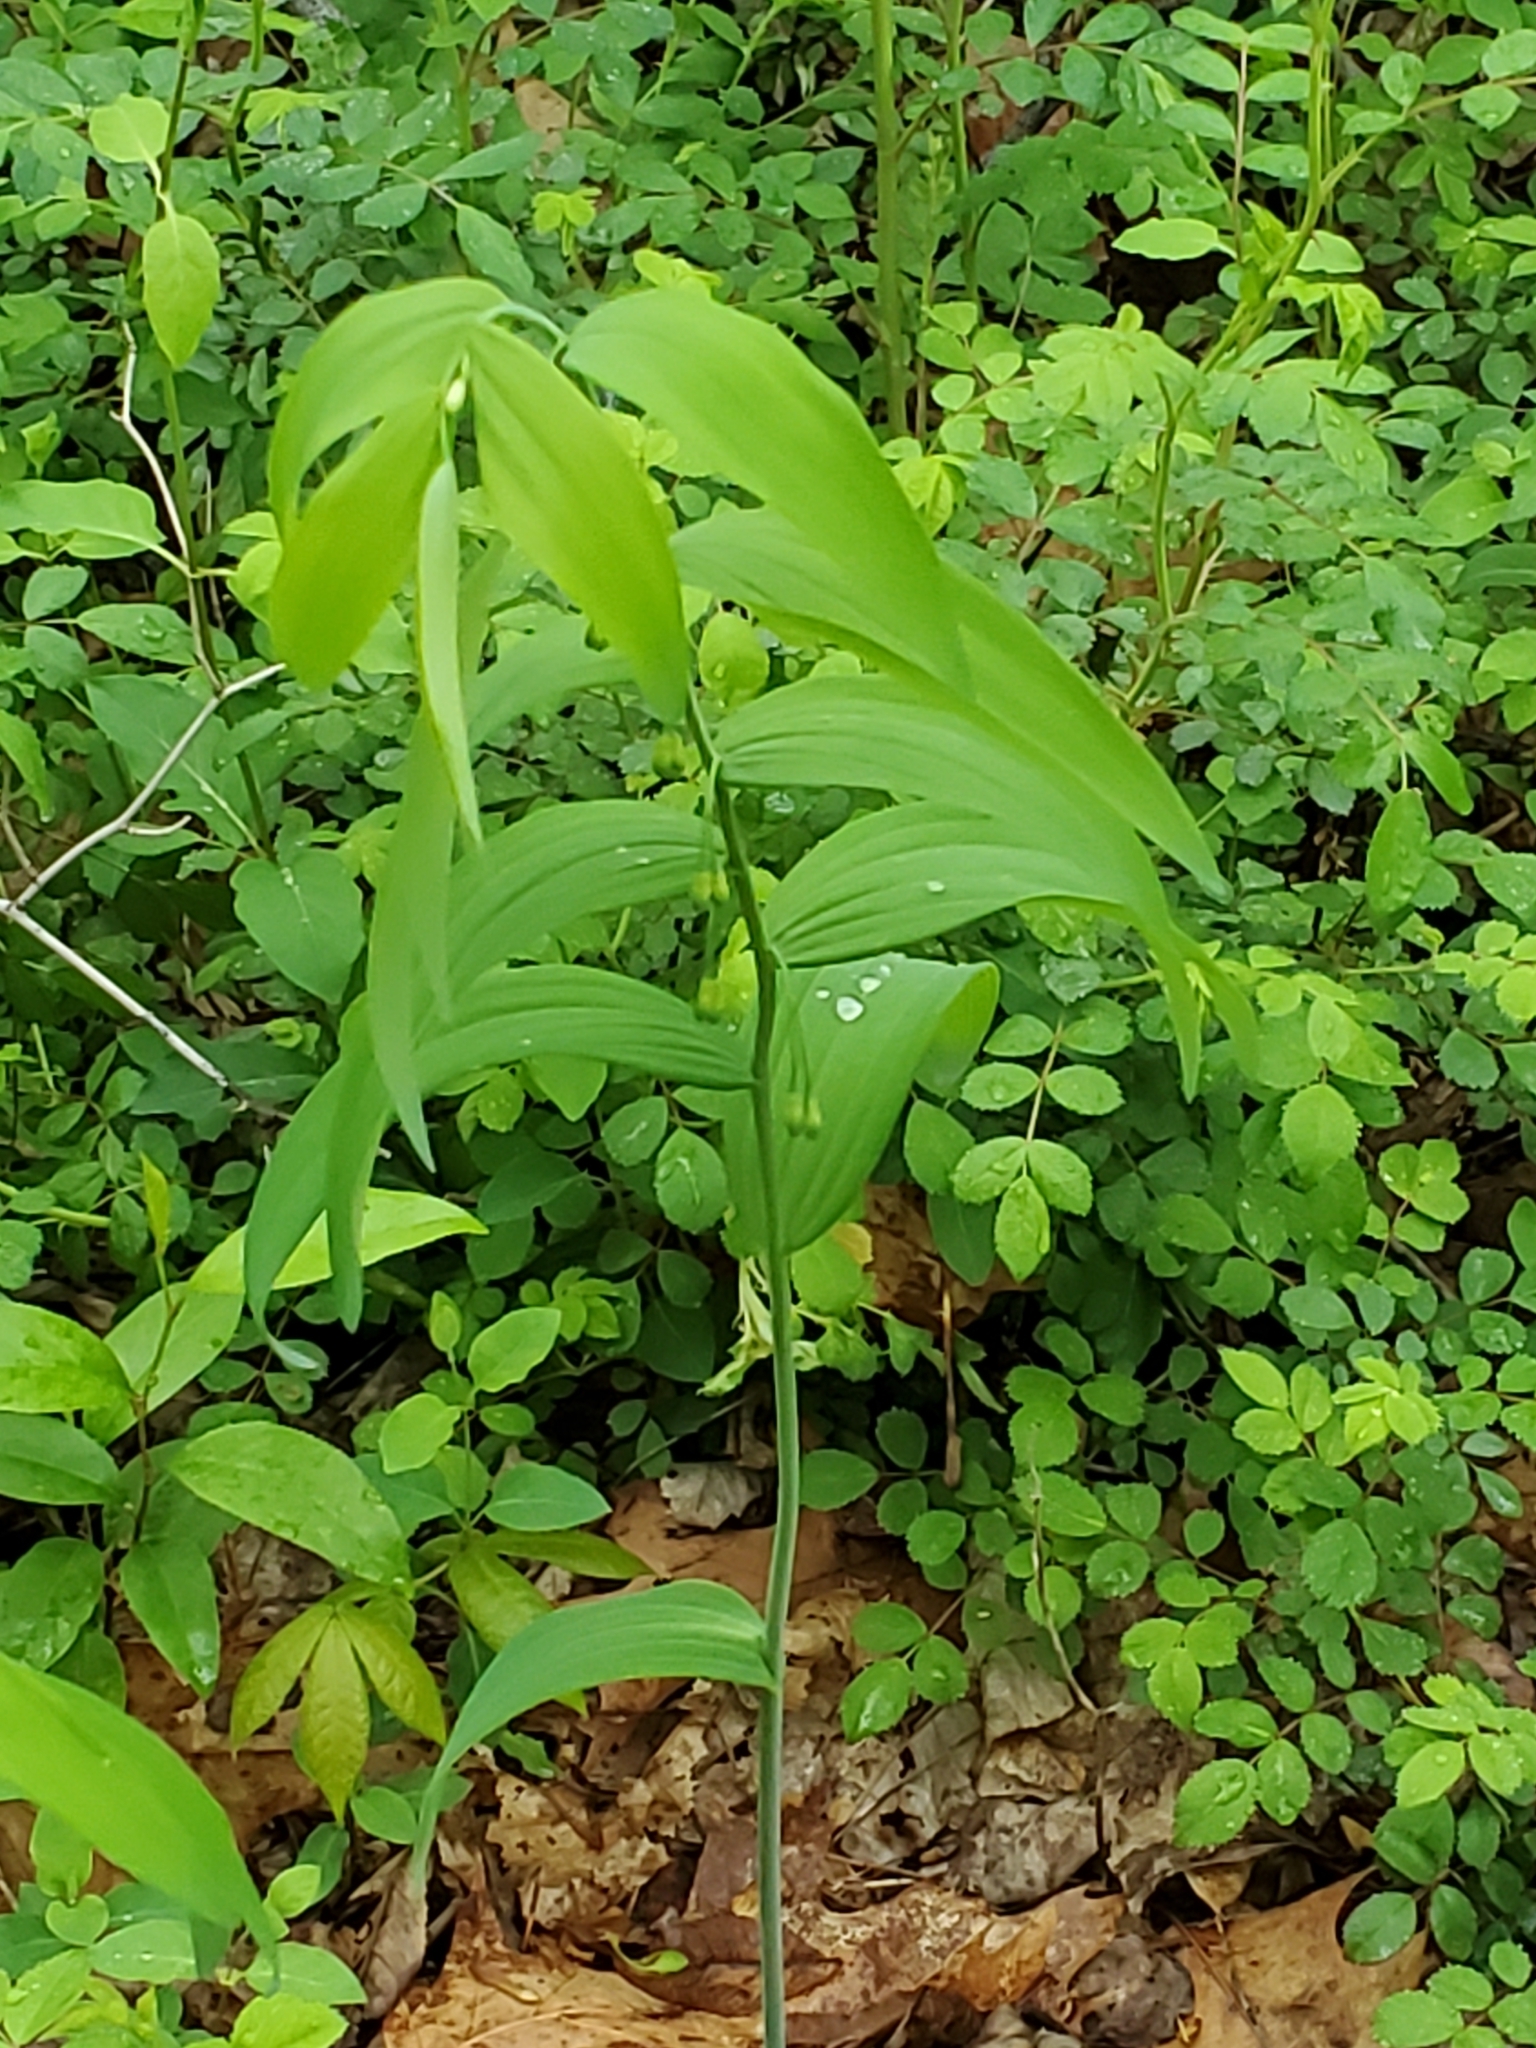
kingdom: Plantae
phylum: Tracheophyta
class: Liliopsida
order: Asparagales
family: Asparagaceae
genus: Polygonatum
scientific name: Polygonatum biflorum
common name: American solomon's-seal
